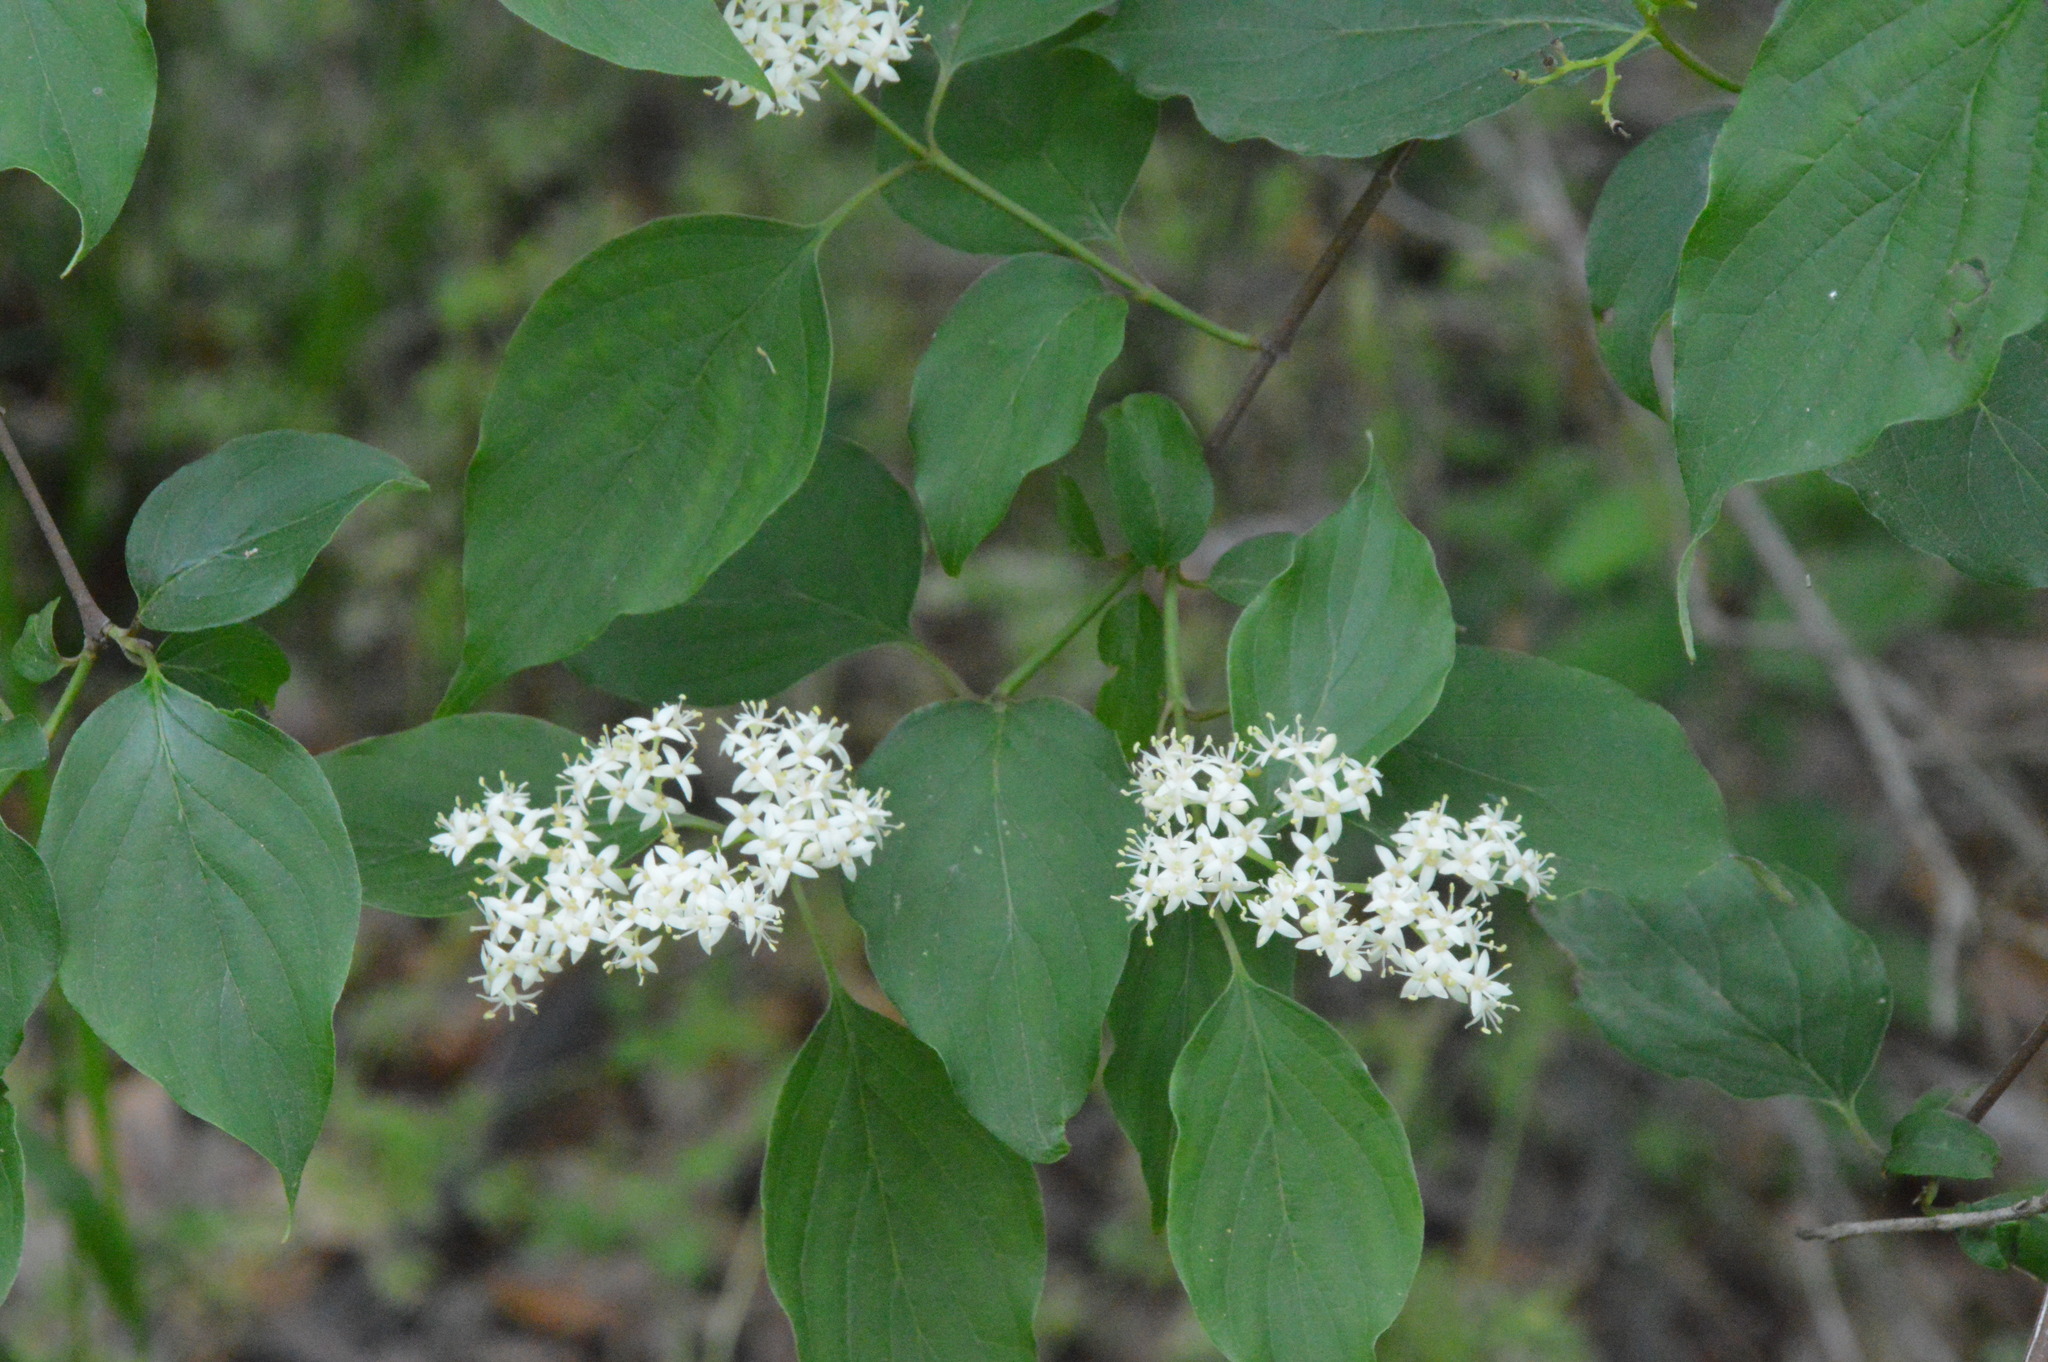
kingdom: Plantae
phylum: Tracheophyta
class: Magnoliopsida
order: Cornales
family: Cornaceae
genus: Cornus
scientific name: Cornus drummondii
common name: Rough-leaf dogwood
